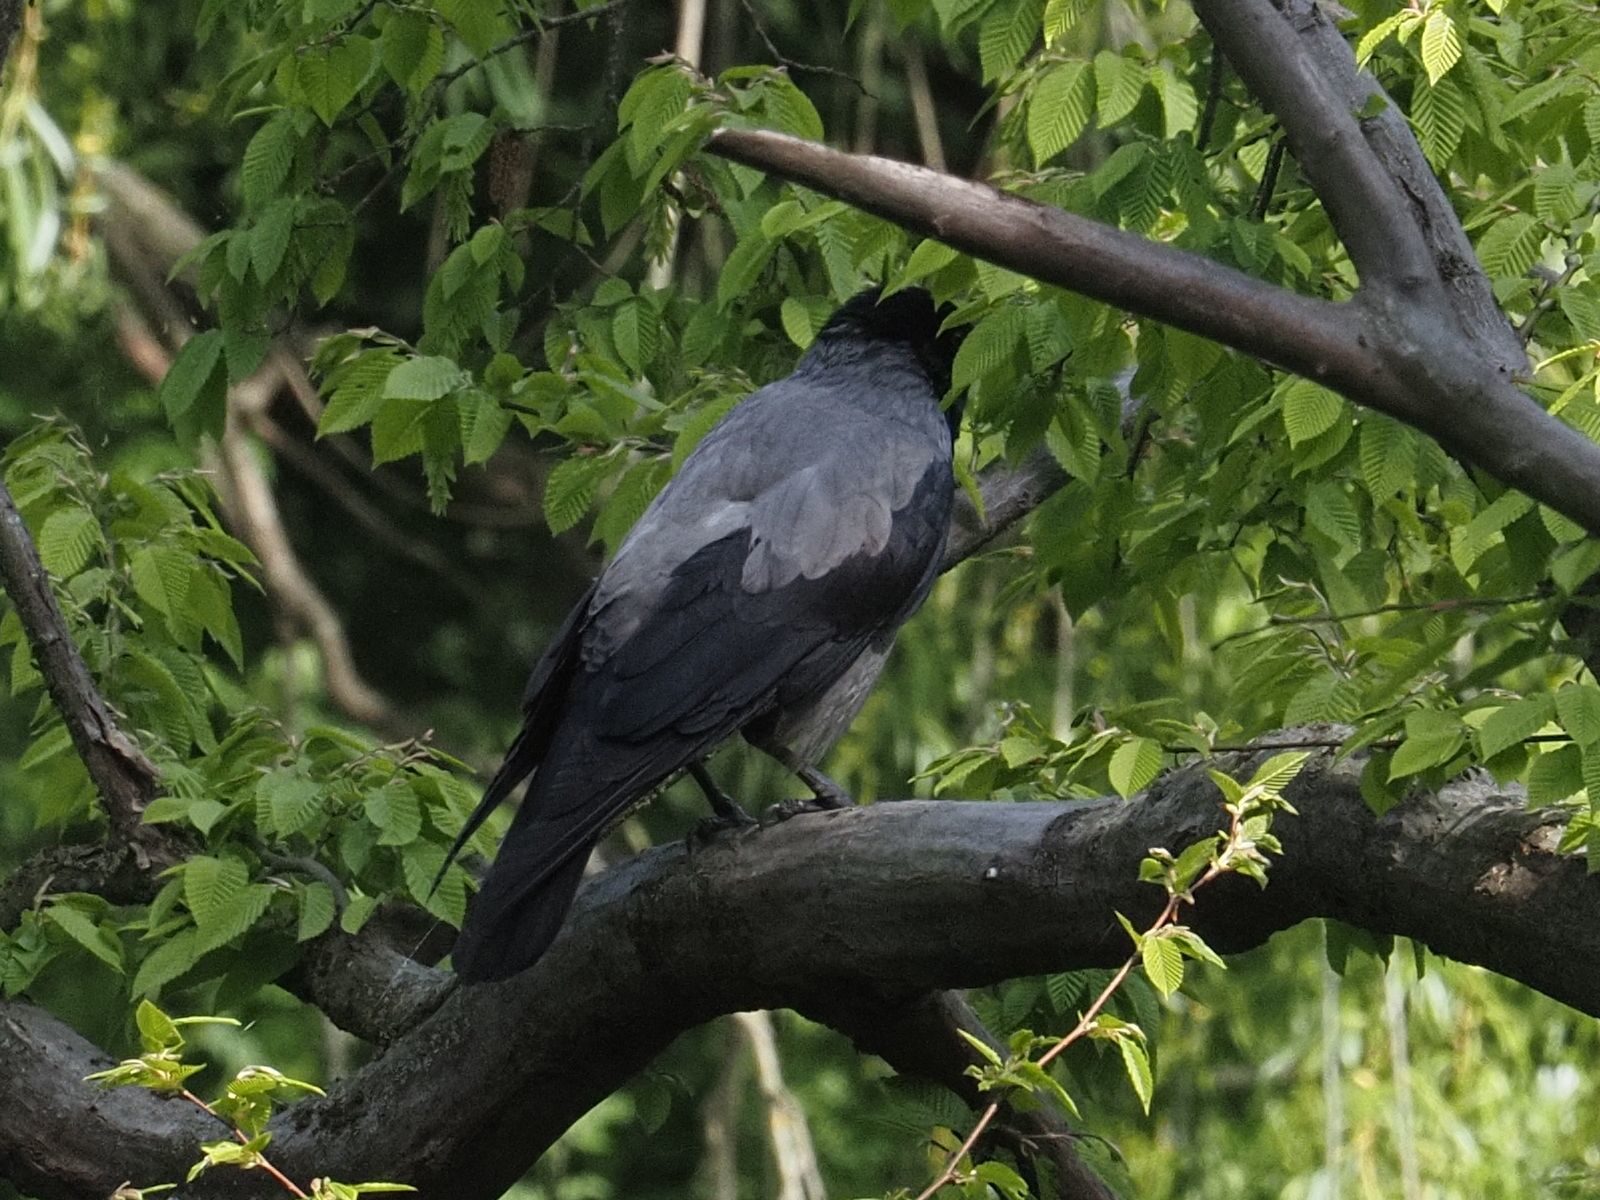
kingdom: Animalia
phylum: Chordata
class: Aves
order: Passeriformes
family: Corvidae
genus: Corvus
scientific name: Corvus cornix
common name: Hooded crow
